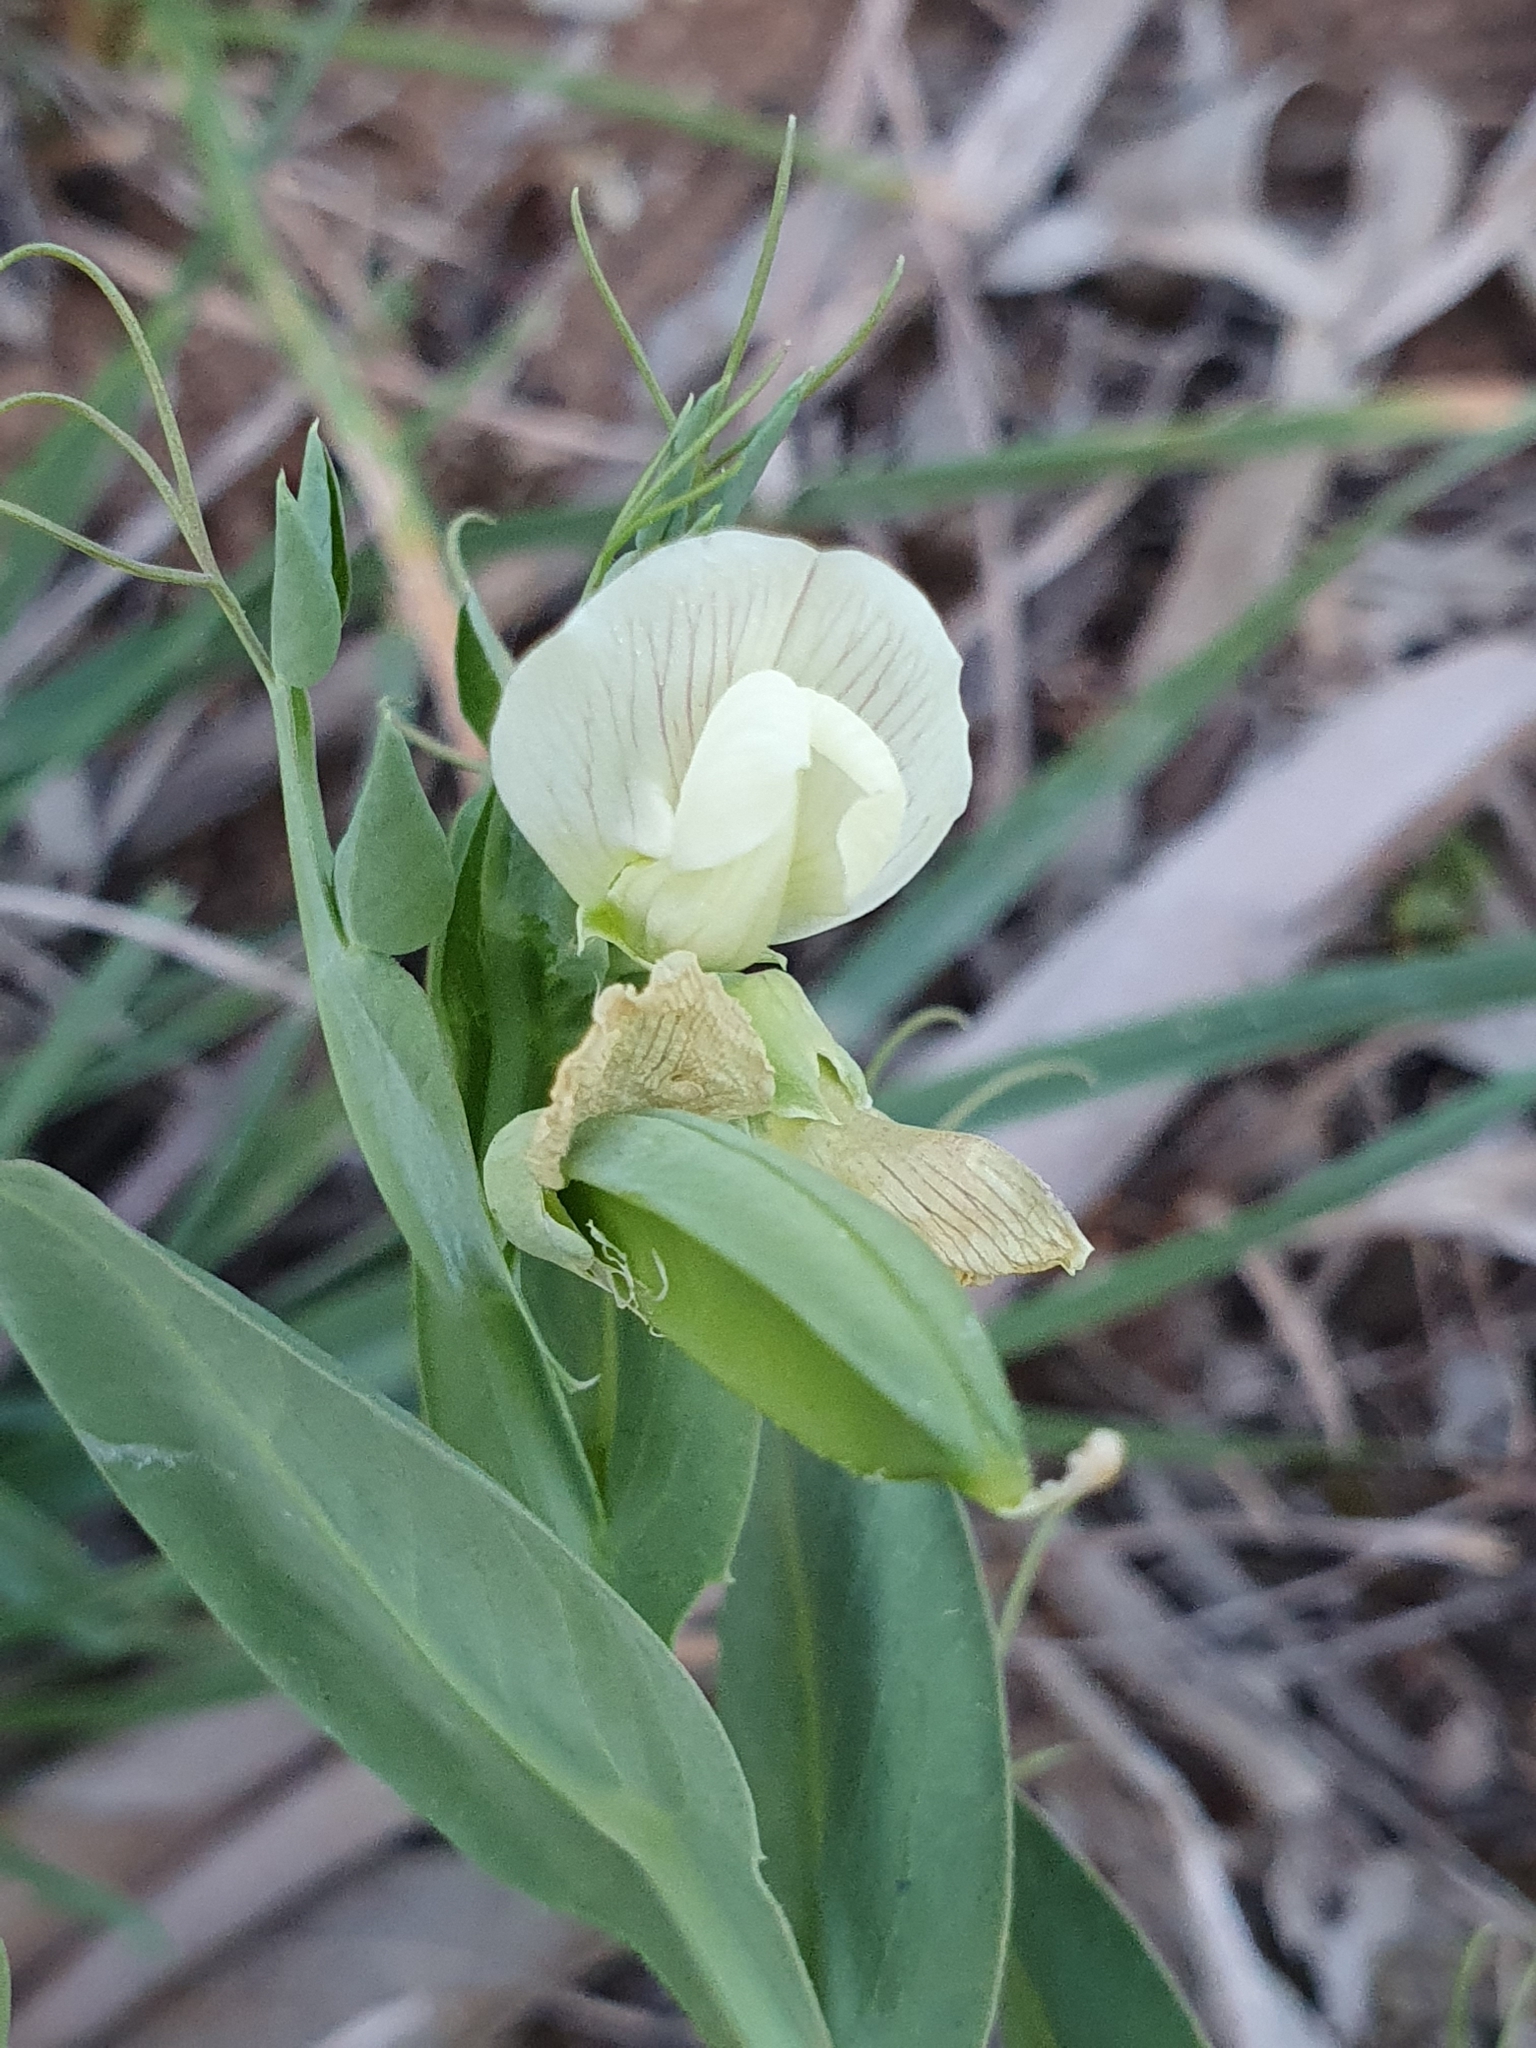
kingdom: Plantae
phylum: Tracheophyta
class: Magnoliopsida
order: Fabales
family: Fabaceae
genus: Lathyrus
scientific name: Lathyrus ochrus
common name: Winged vetchling
